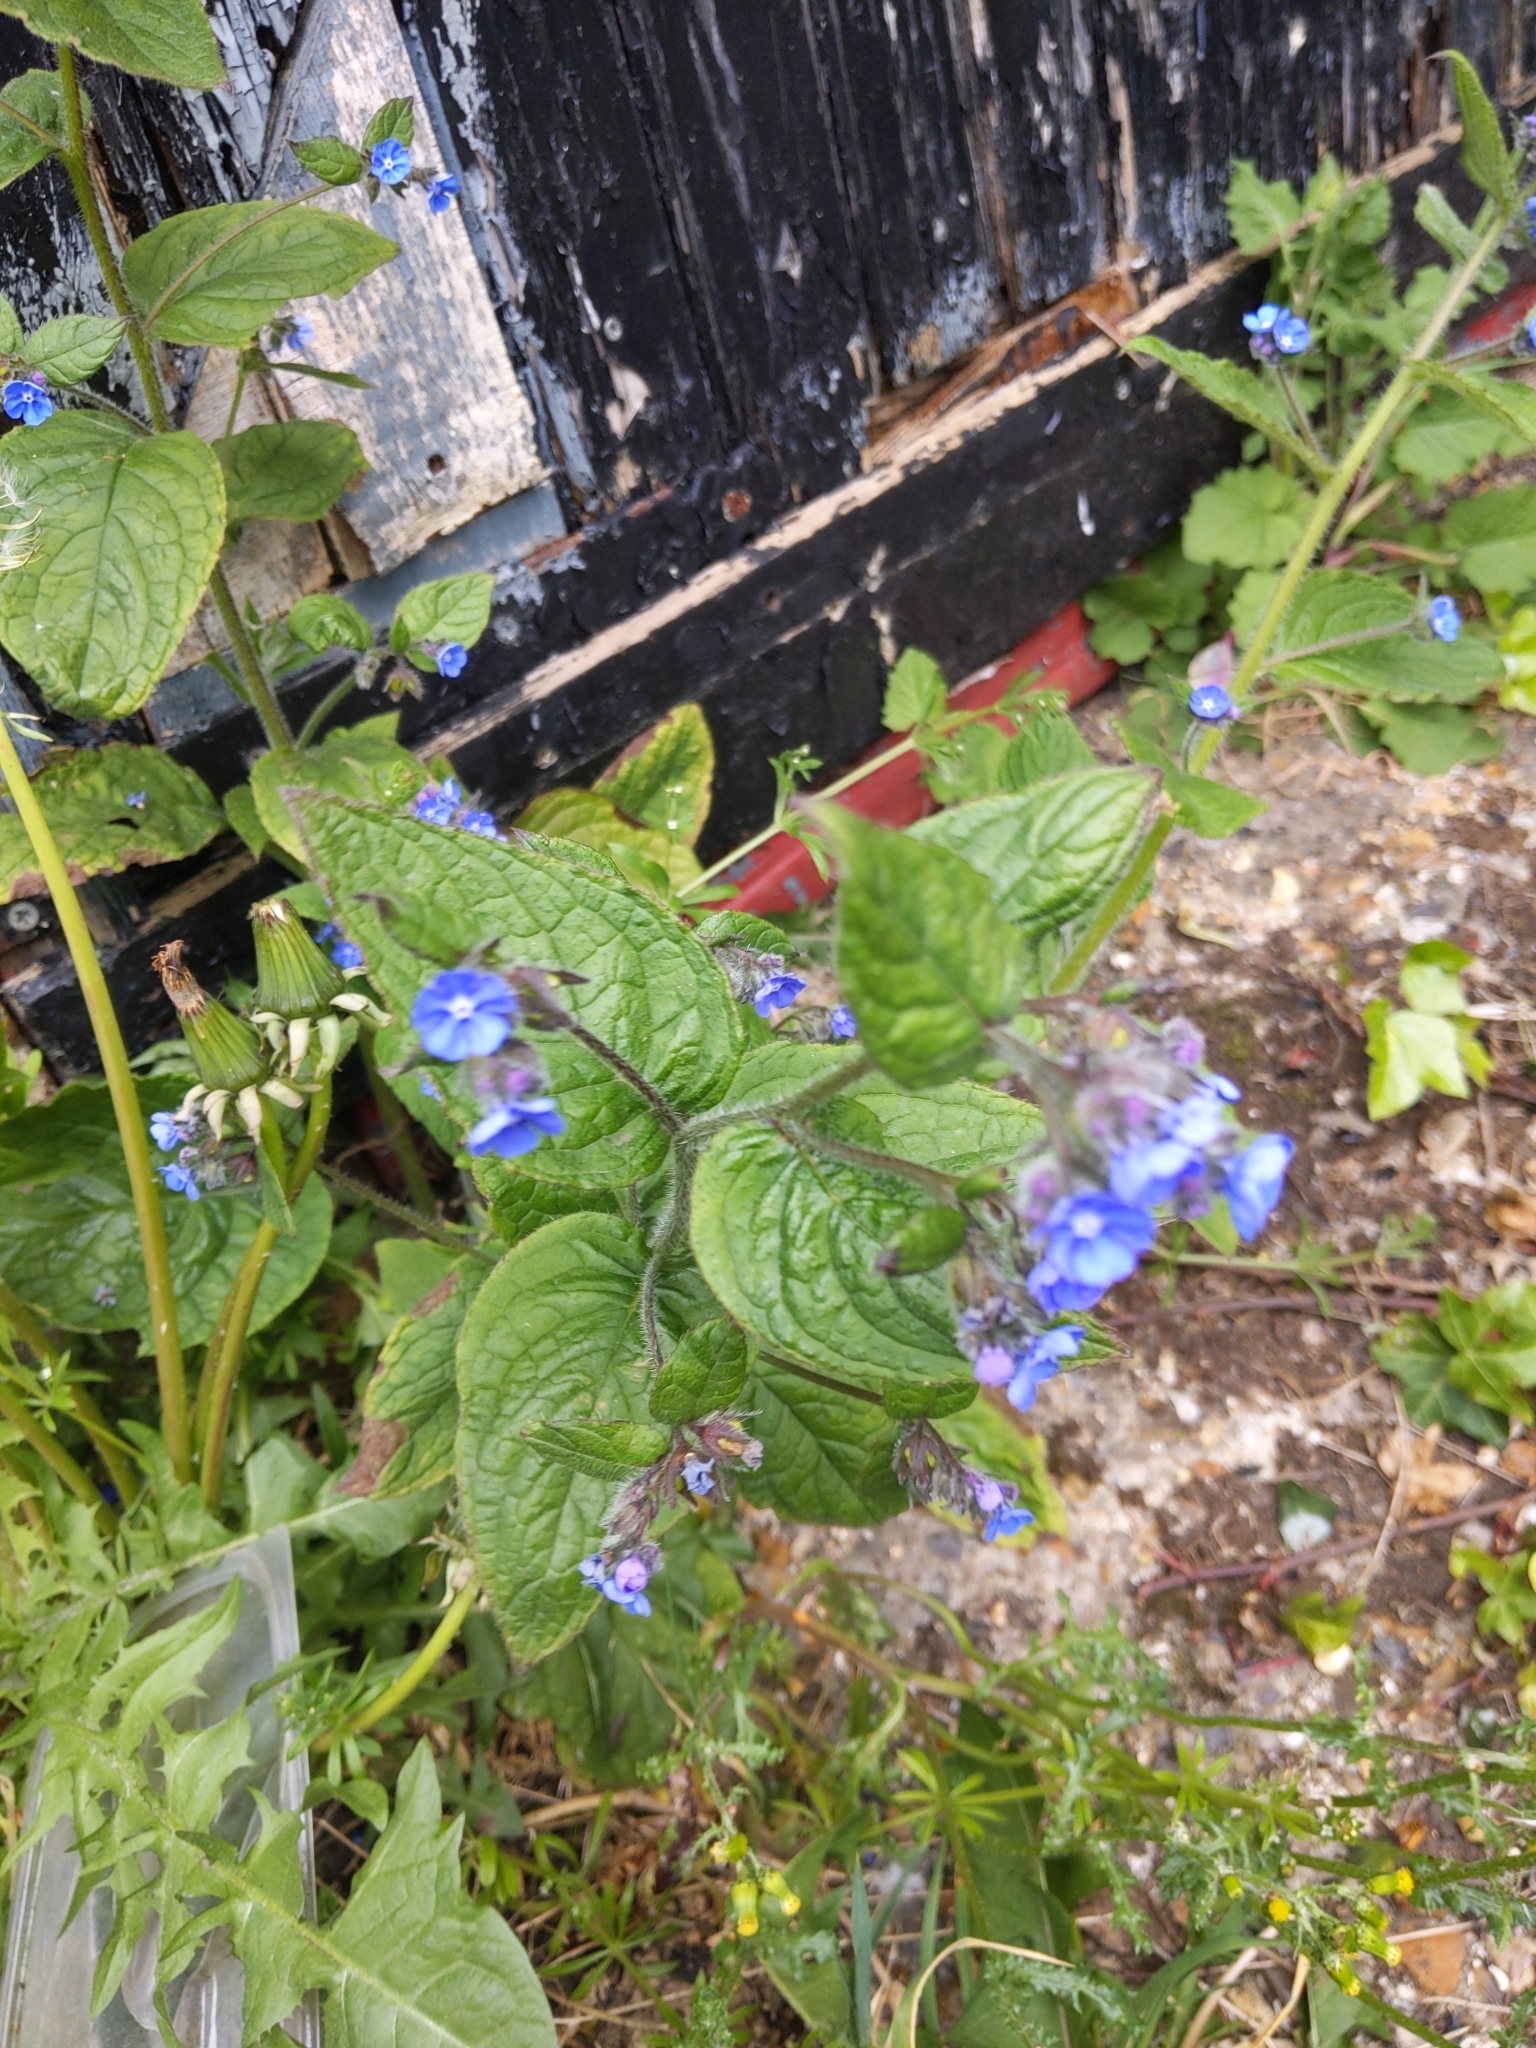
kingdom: Plantae
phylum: Tracheophyta
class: Magnoliopsida
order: Boraginales
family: Boraginaceae
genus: Pentaglottis
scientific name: Pentaglottis sempervirens
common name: Green alkanet
